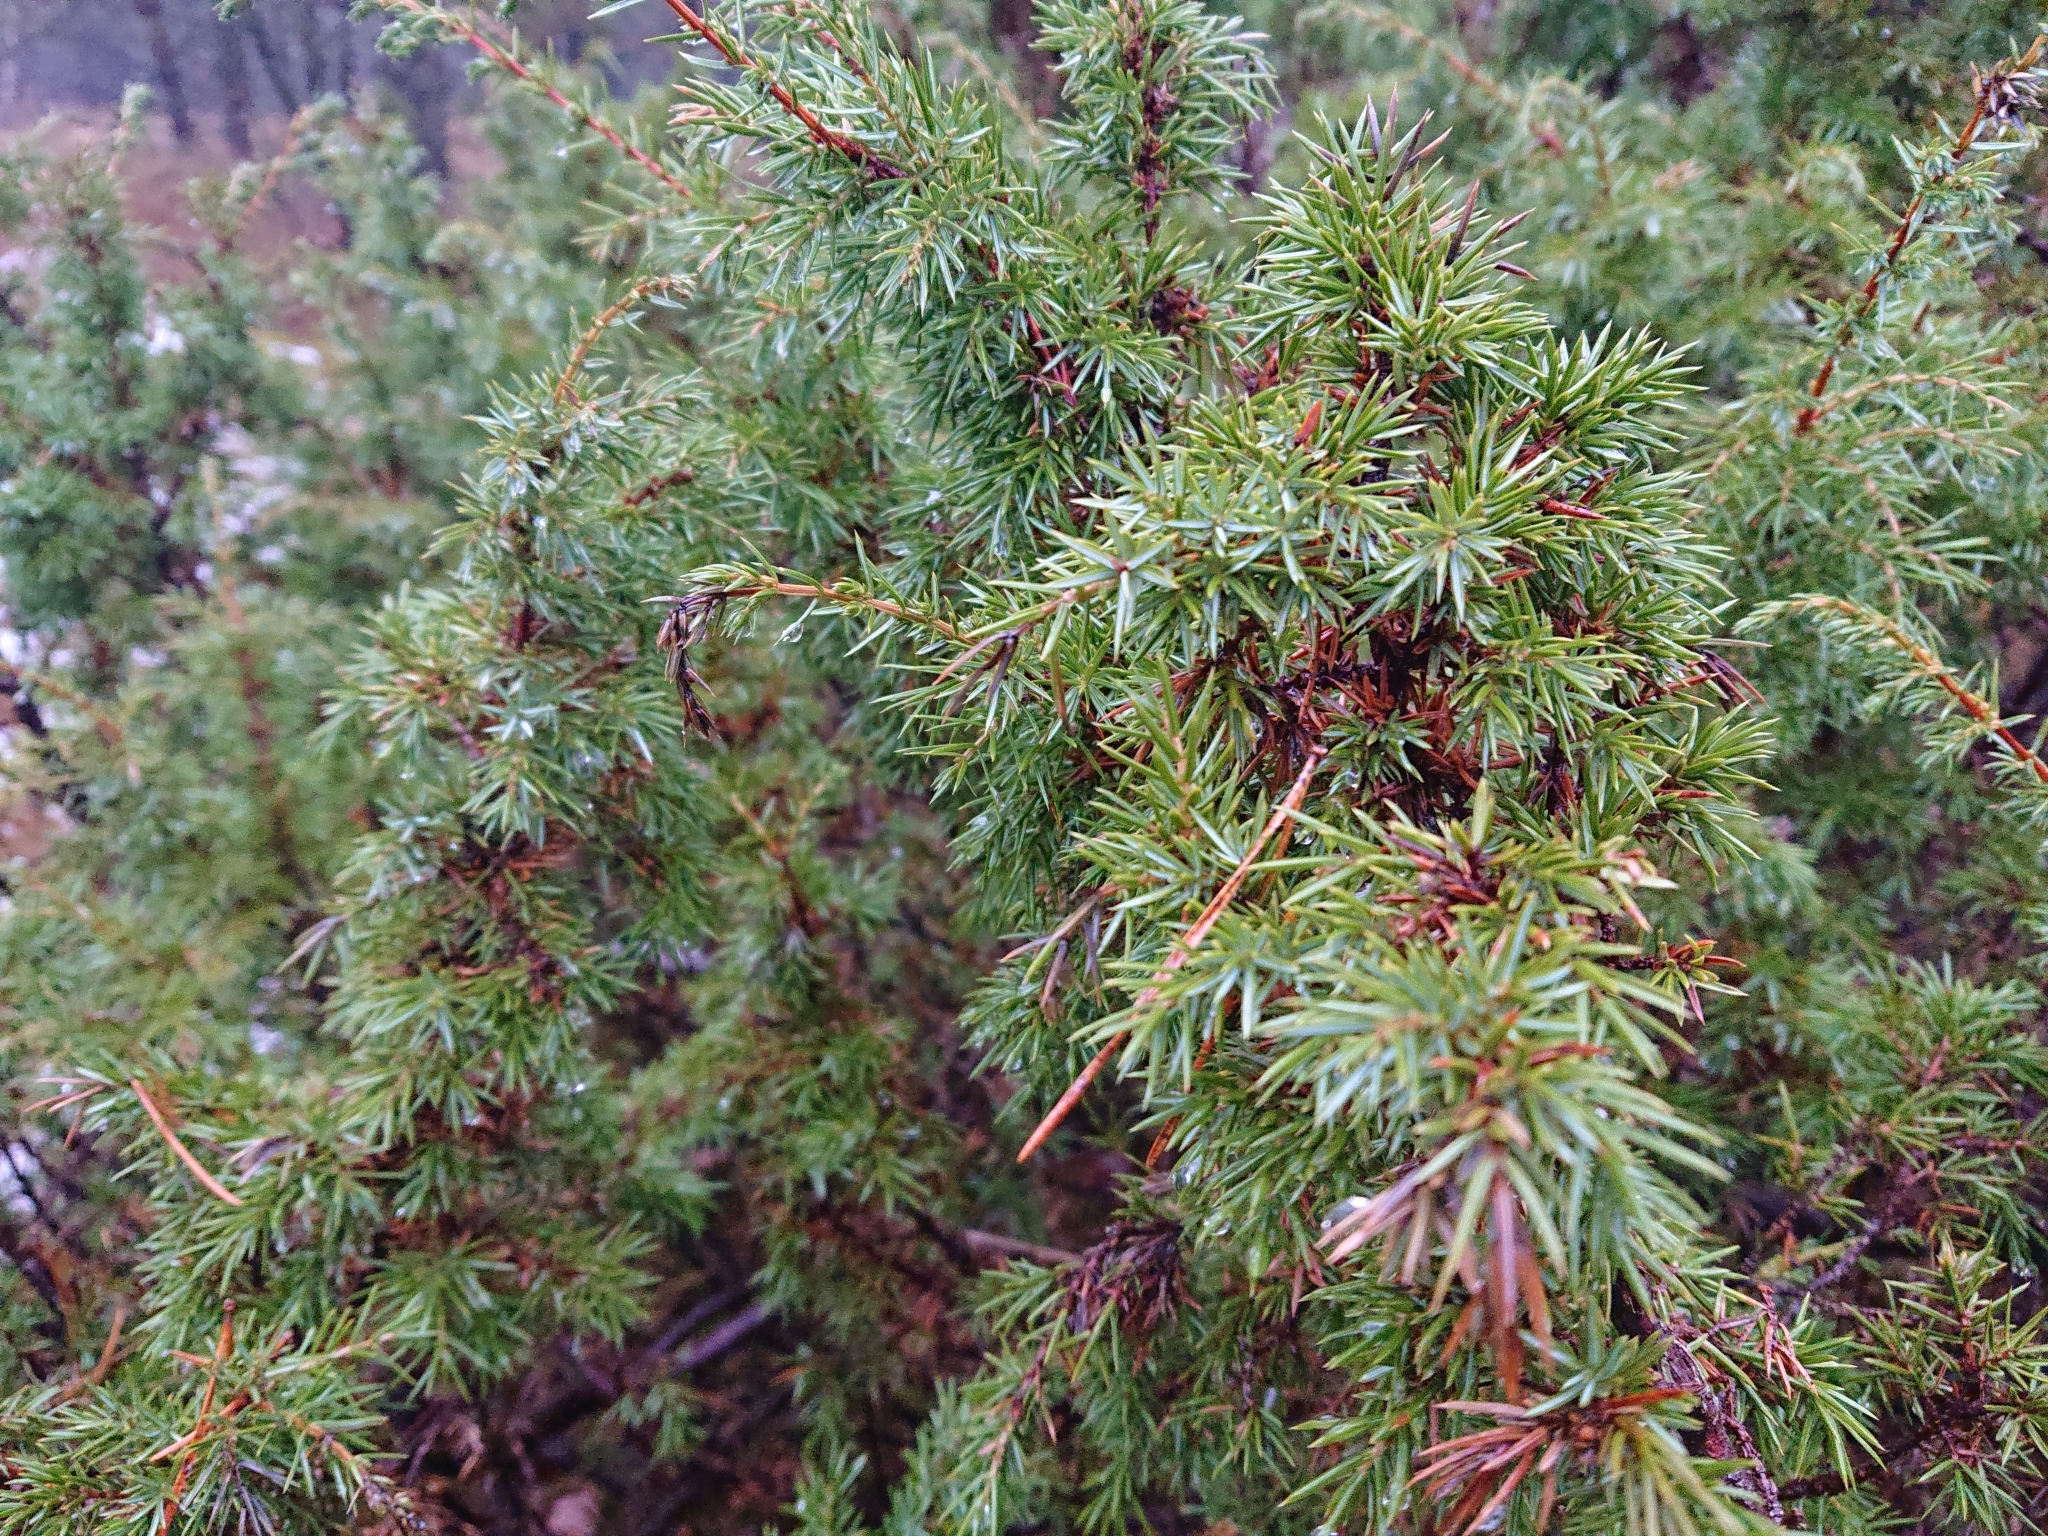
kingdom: Plantae
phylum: Tracheophyta
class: Pinopsida
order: Pinales
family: Cupressaceae
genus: Juniperus
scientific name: Juniperus communis
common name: Common juniper
